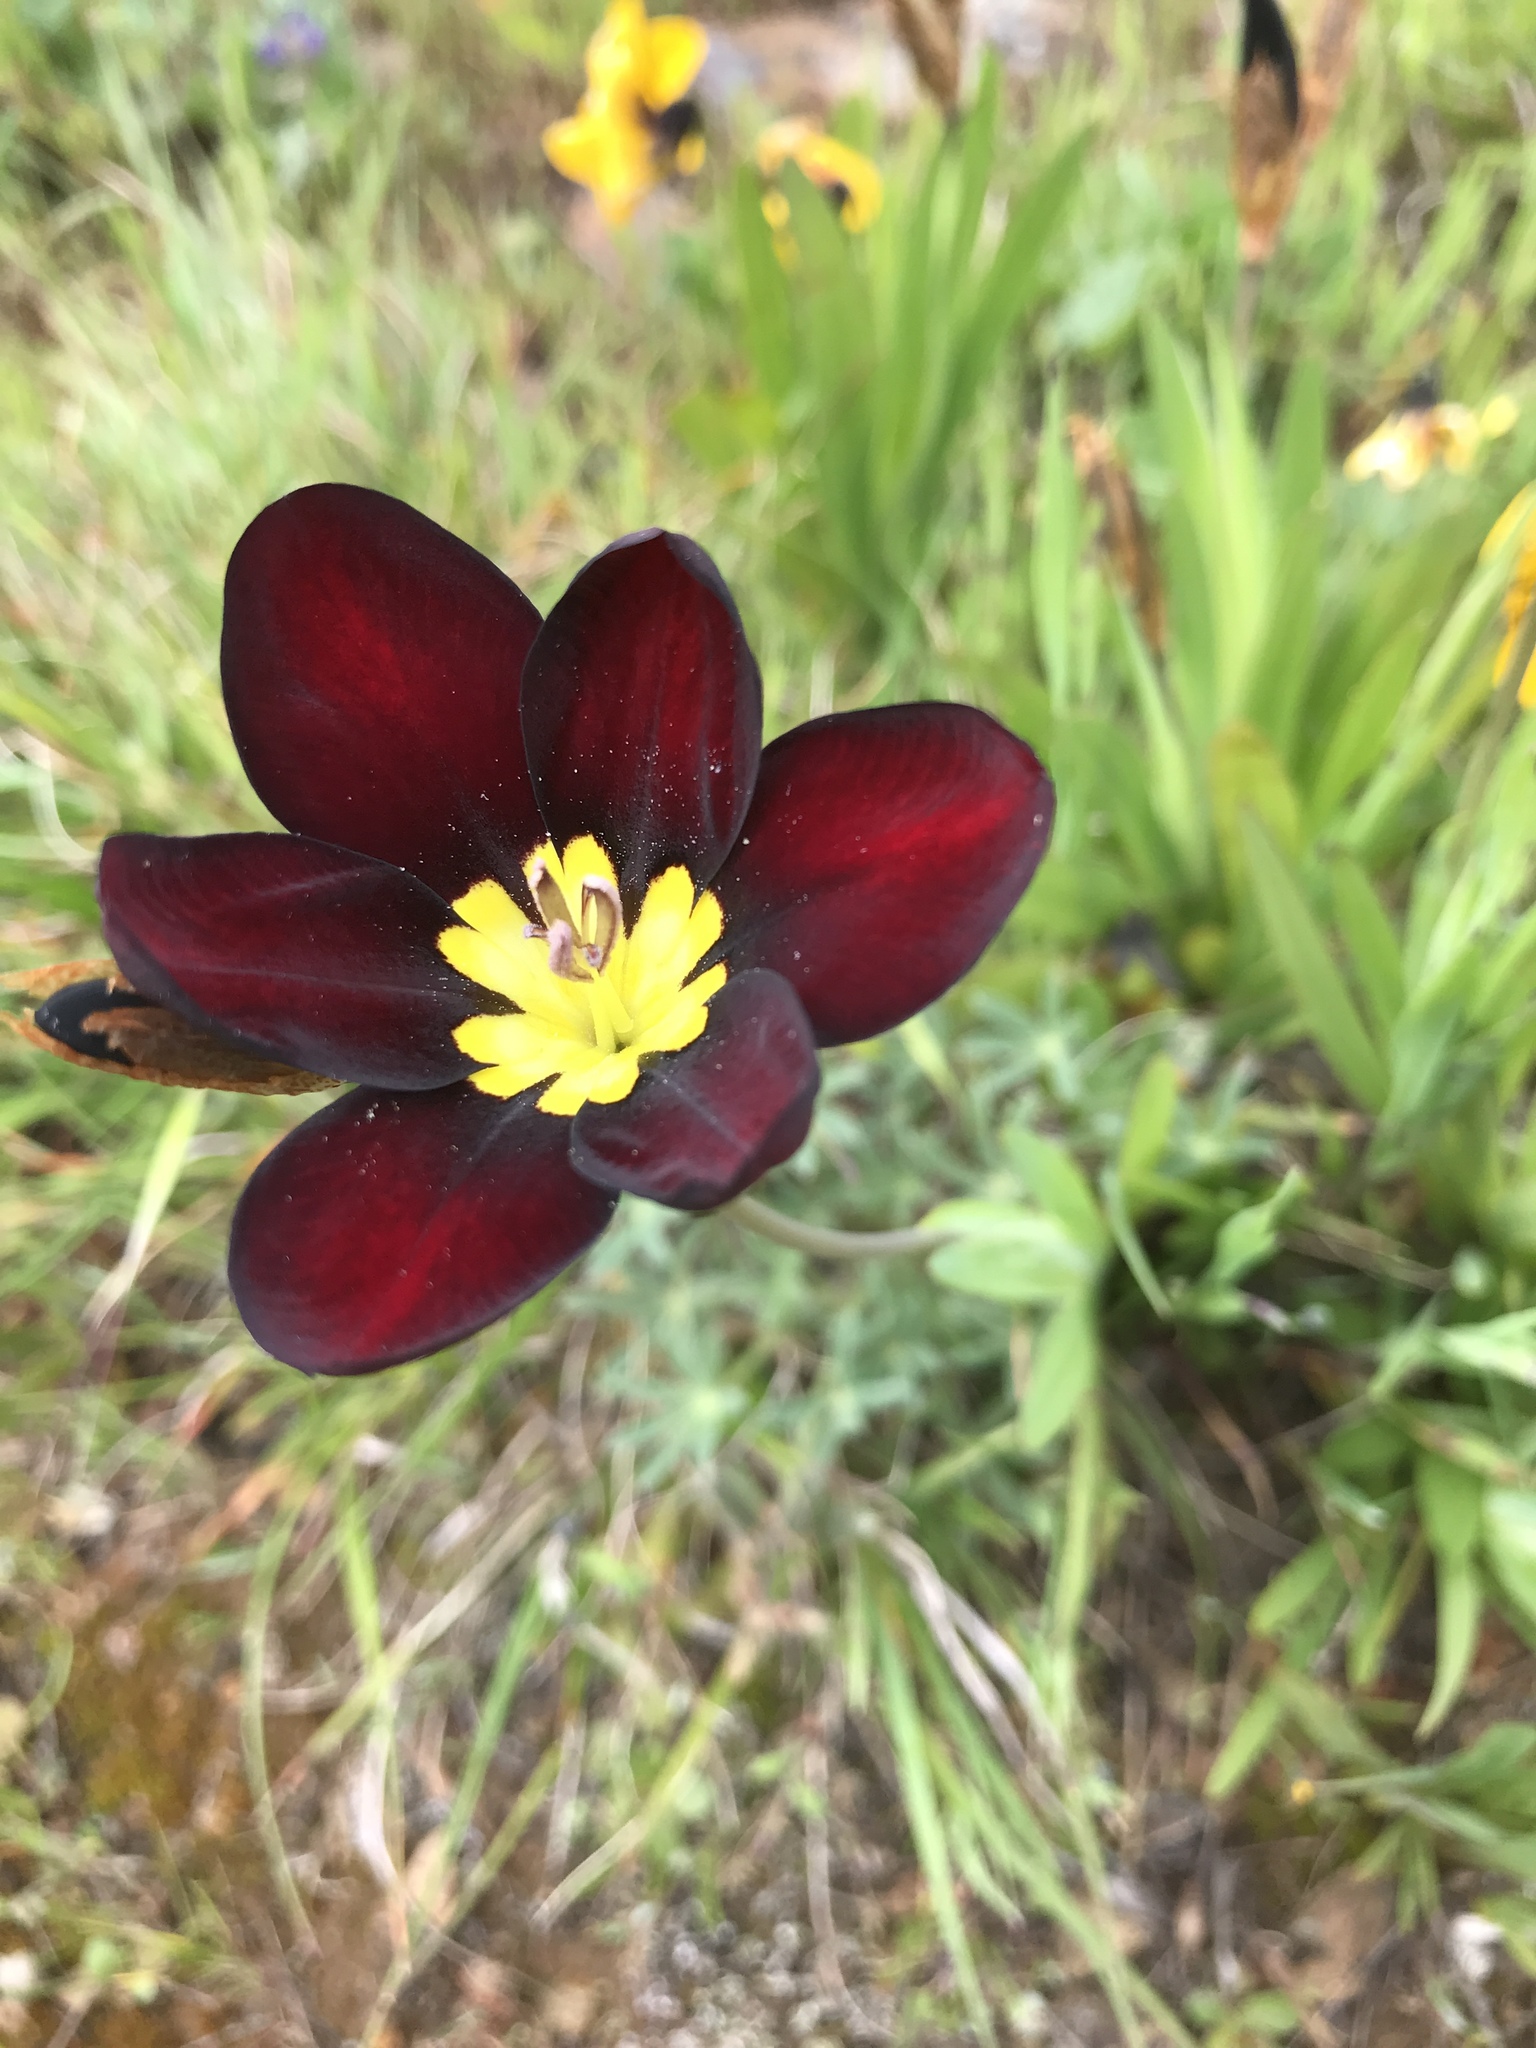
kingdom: Plantae
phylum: Tracheophyta
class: Liliopsida
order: Asparagales
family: Iridaceae
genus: Sparaxis
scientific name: Sparaxis tricolor
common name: Wandflower
